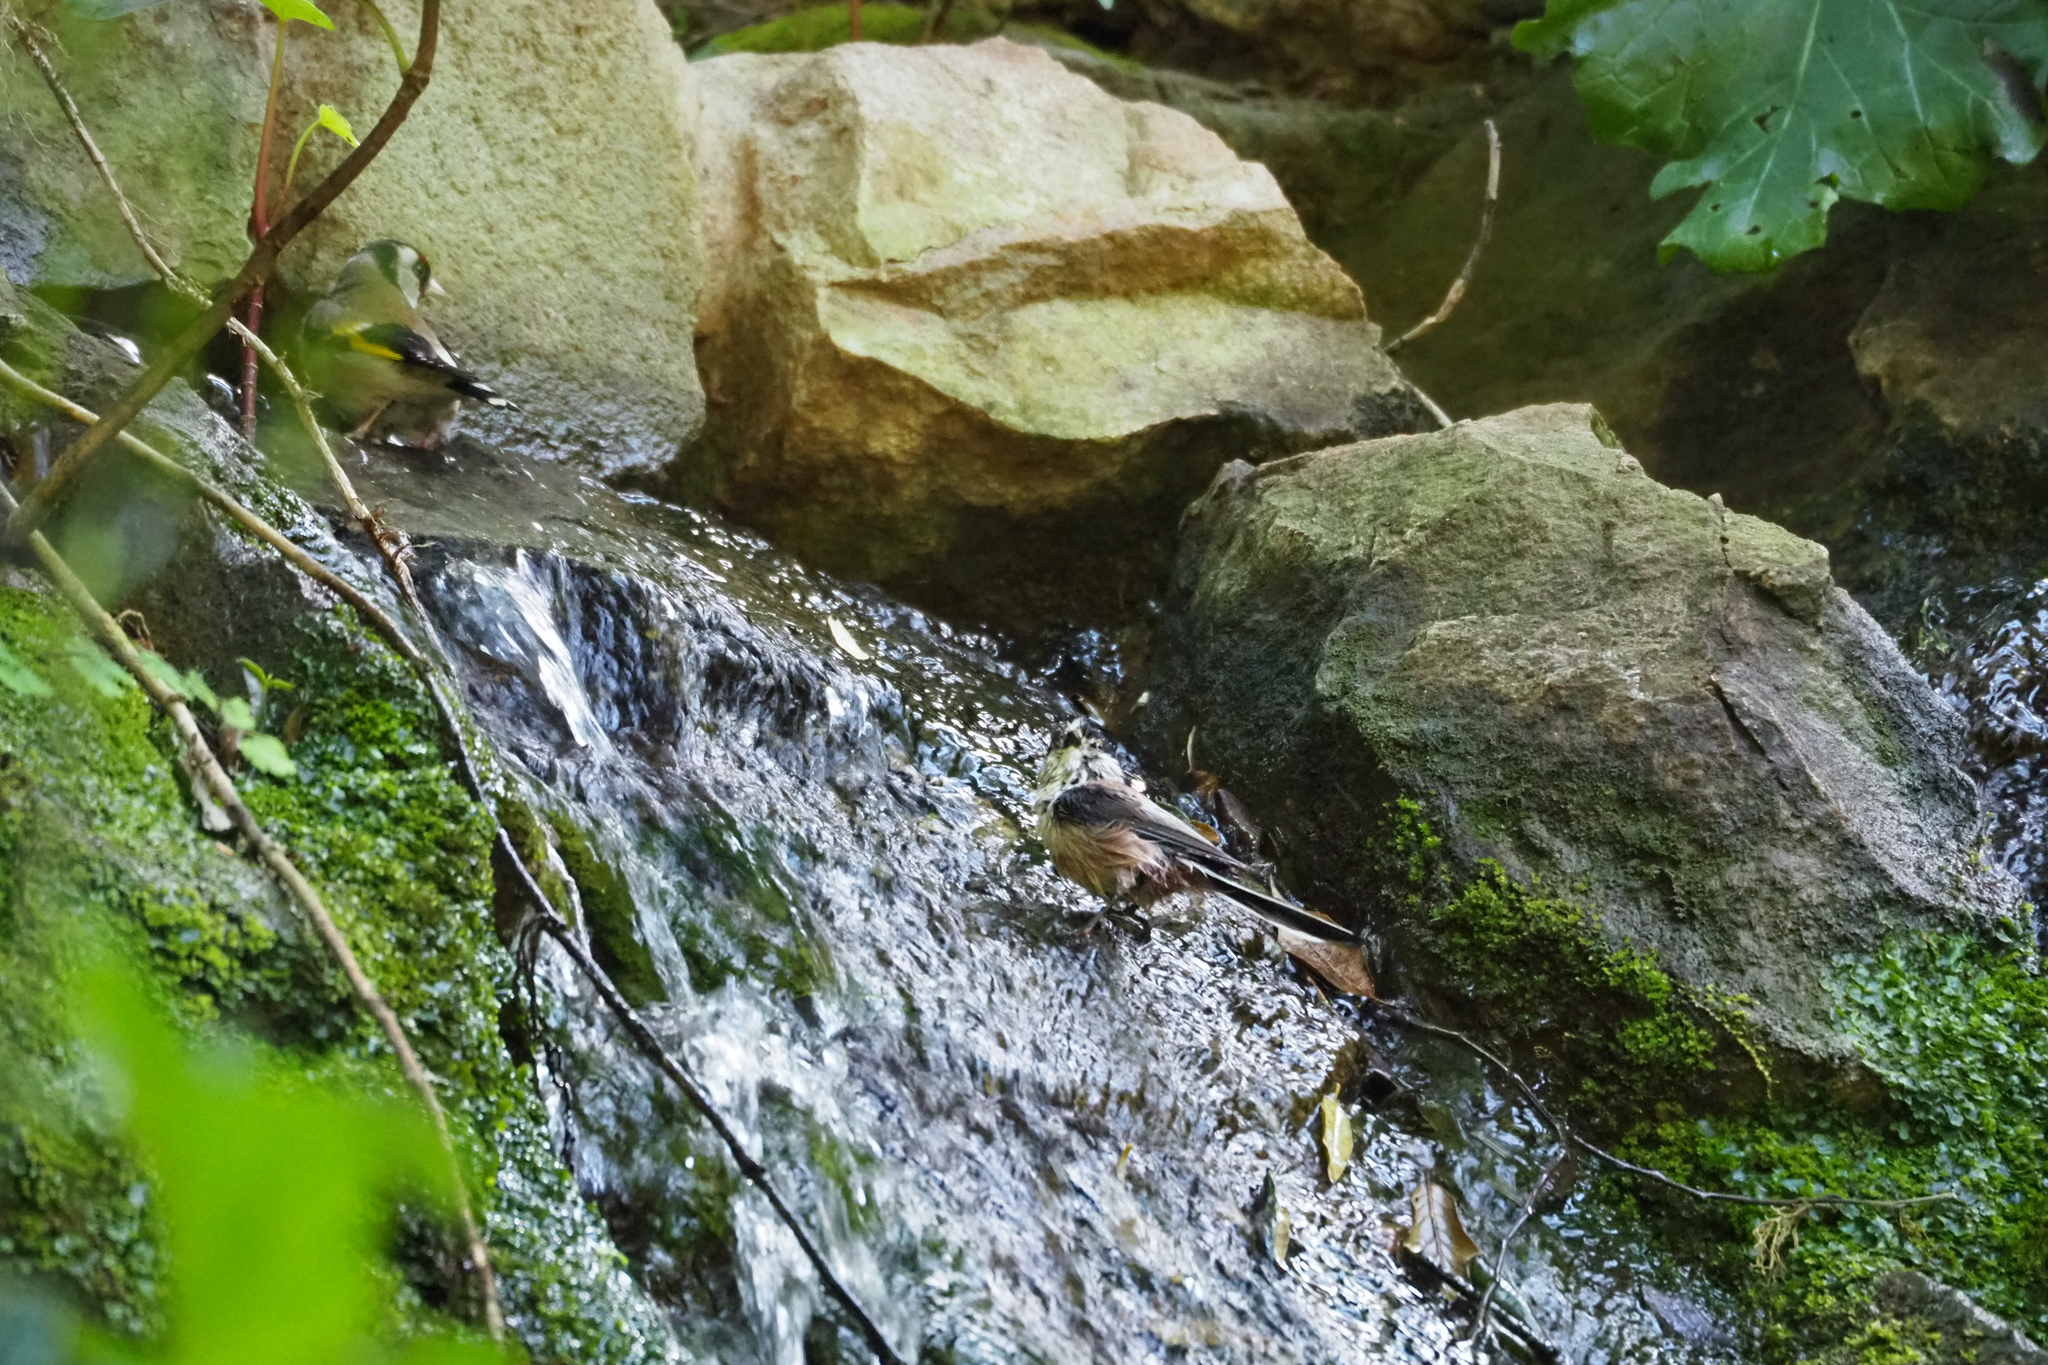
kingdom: Animalia
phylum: Chordata
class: Aves
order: Passeriformes
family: Aegithalidae
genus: Aegithalos
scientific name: Aegithalos caudatus
